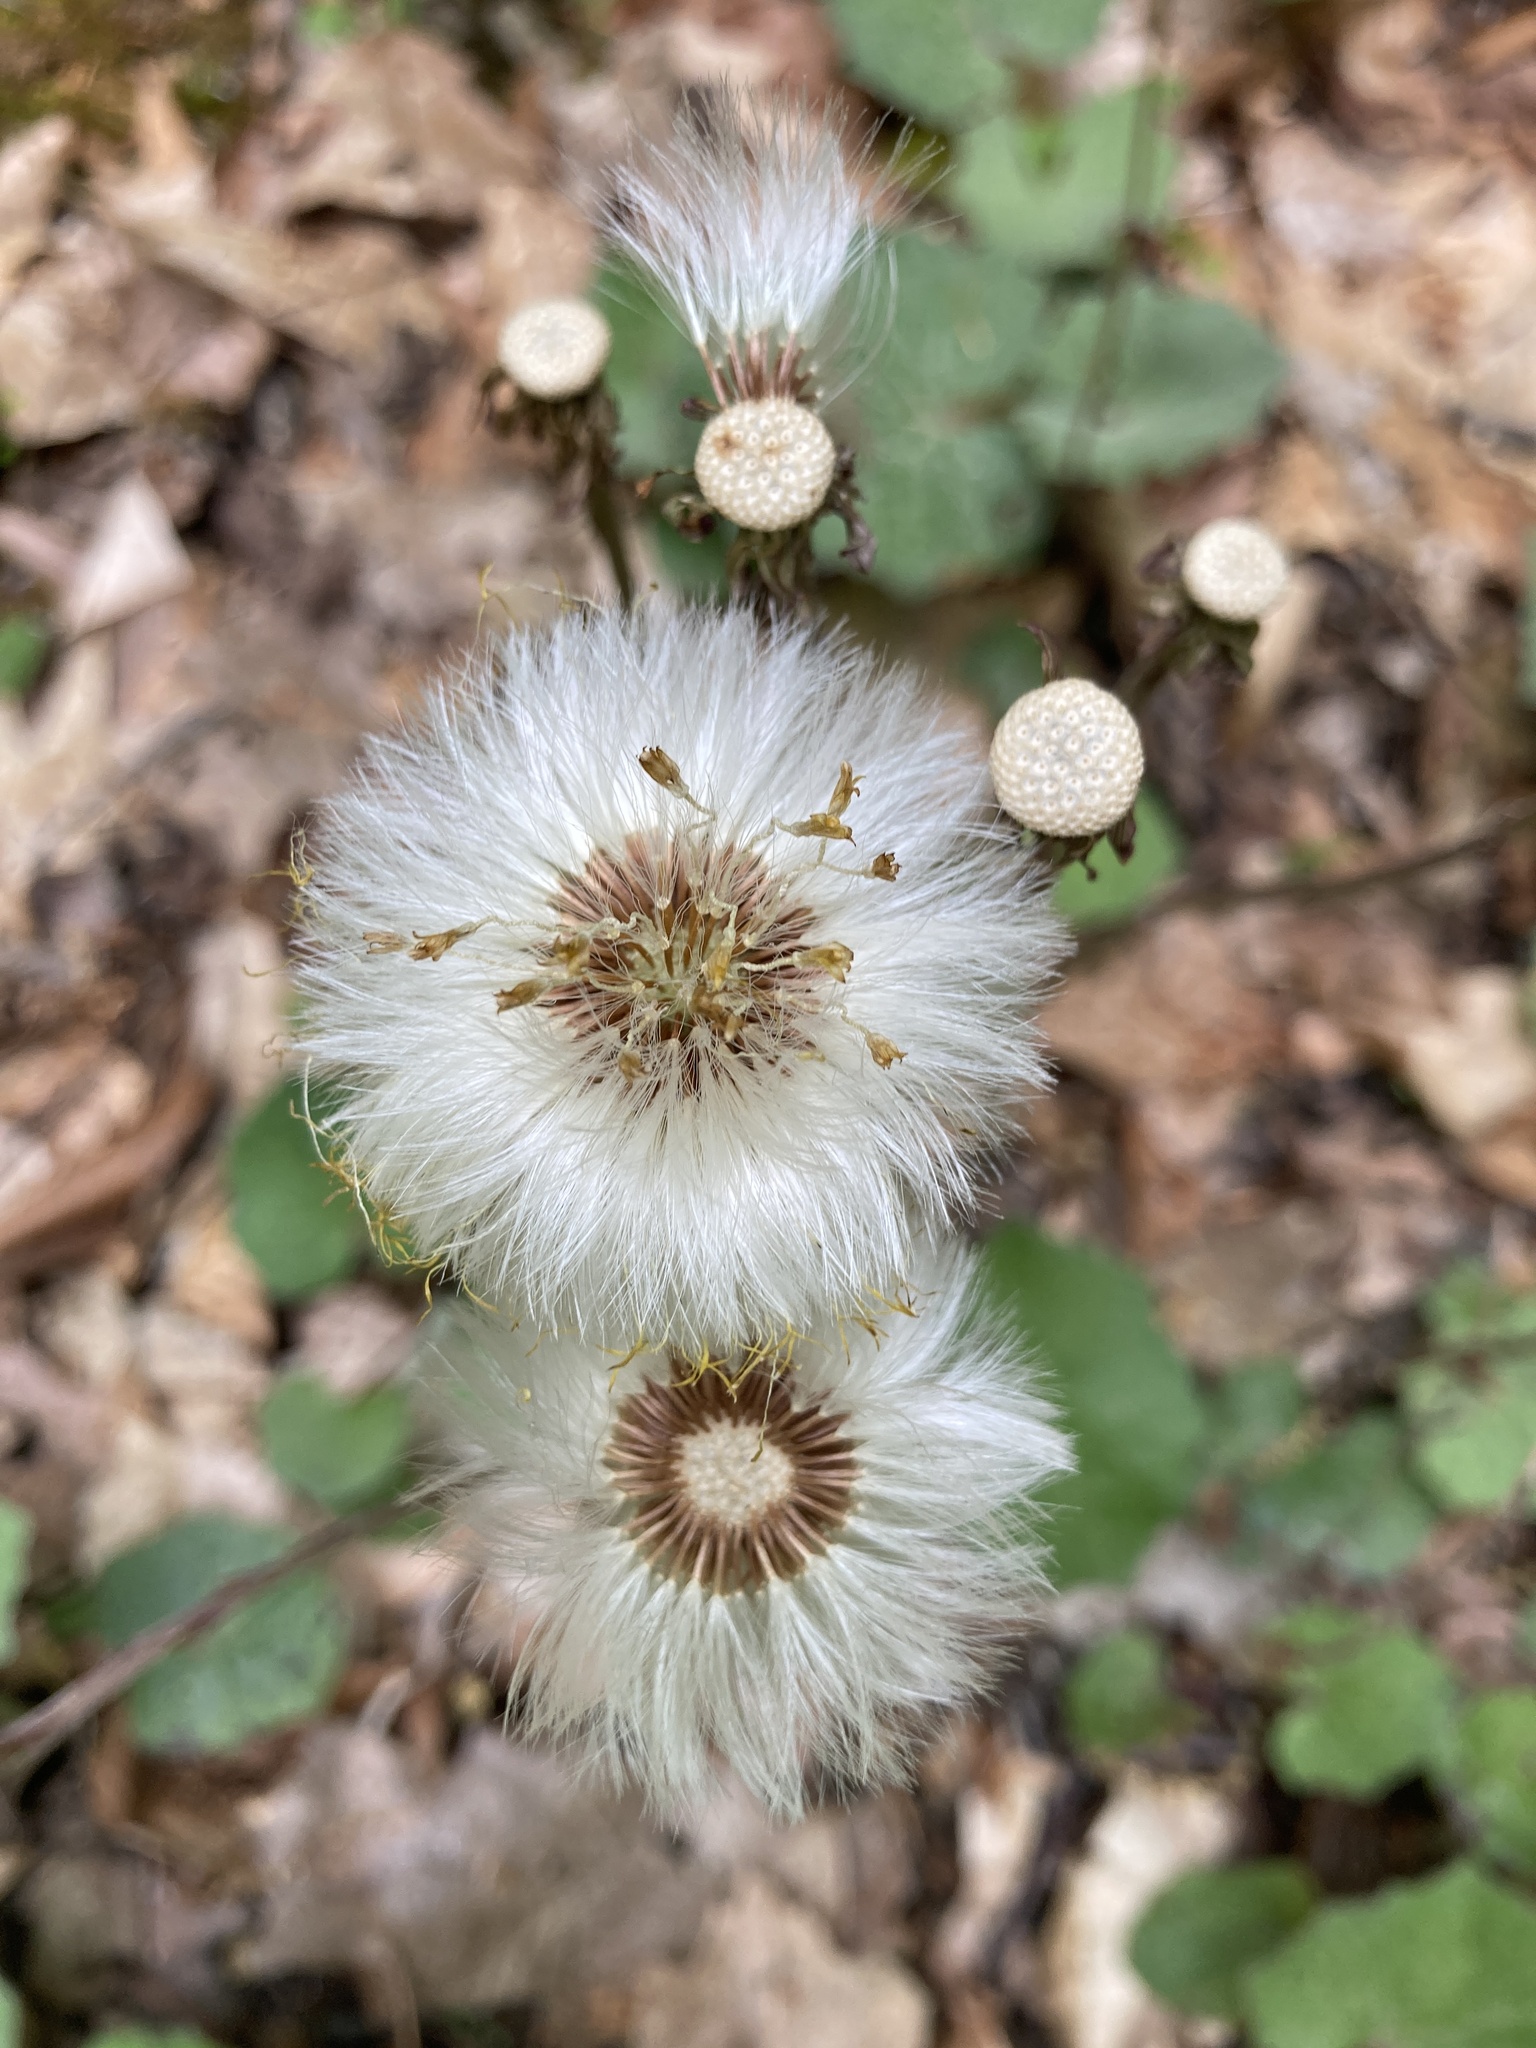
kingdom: Plantae
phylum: Tracheophyta
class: Magnoliopsida
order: Asterales
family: Asteraceae
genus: Tussilago
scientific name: Tussilago farfara
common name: Coltsfoot
